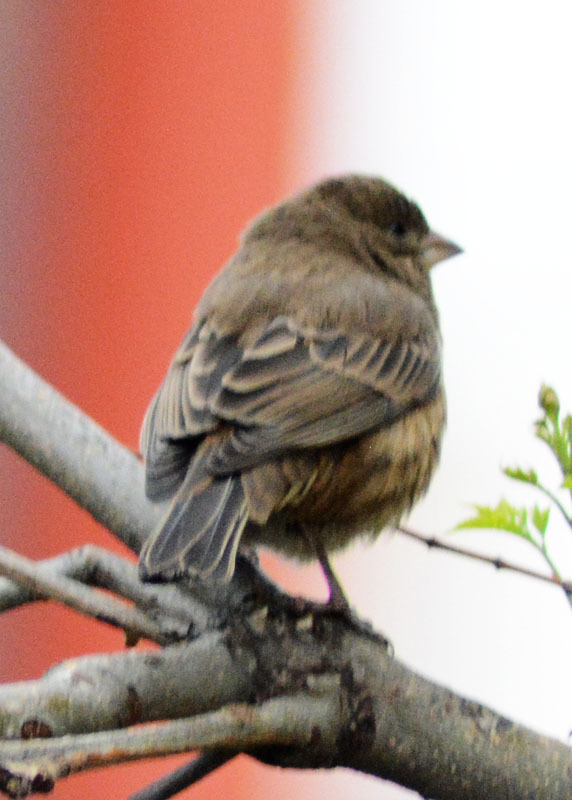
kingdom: Animalia
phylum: Chordata
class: Aves
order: Passeriformes
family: Fringillidae
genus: Haemorhous
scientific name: Haemorhous mexicanus
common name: House finch
